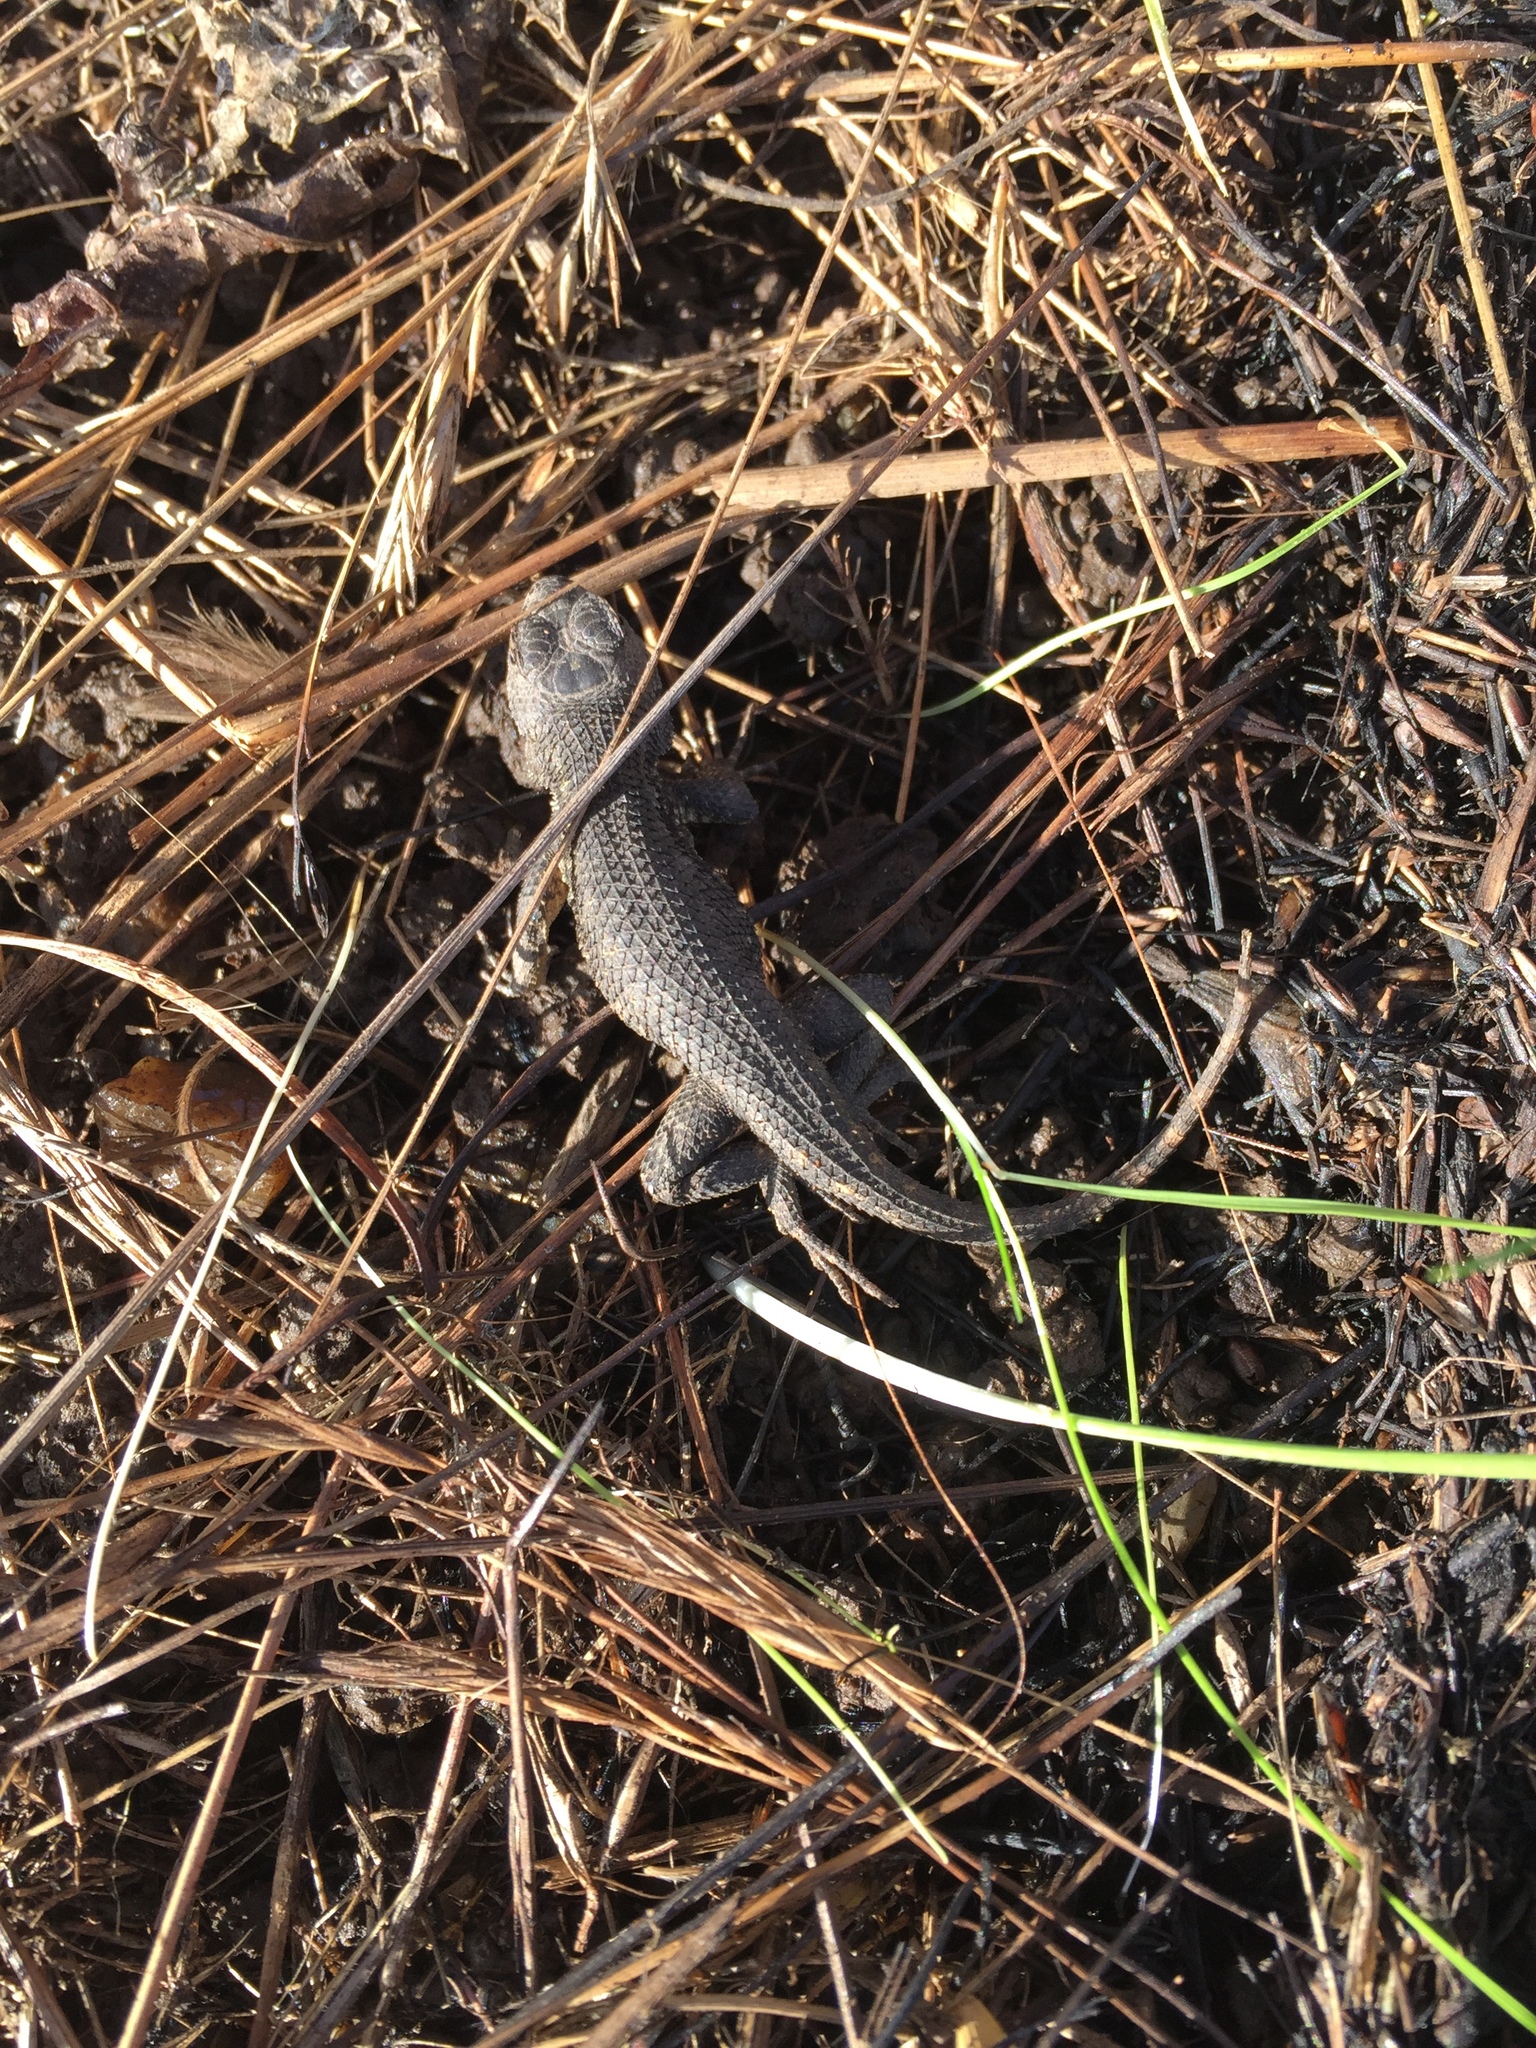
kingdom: Animalia
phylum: Chordata
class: Squamata
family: Phrynosomatidae
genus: Sceloporus
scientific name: Sceloporus occidentalis
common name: Western fence lizard
